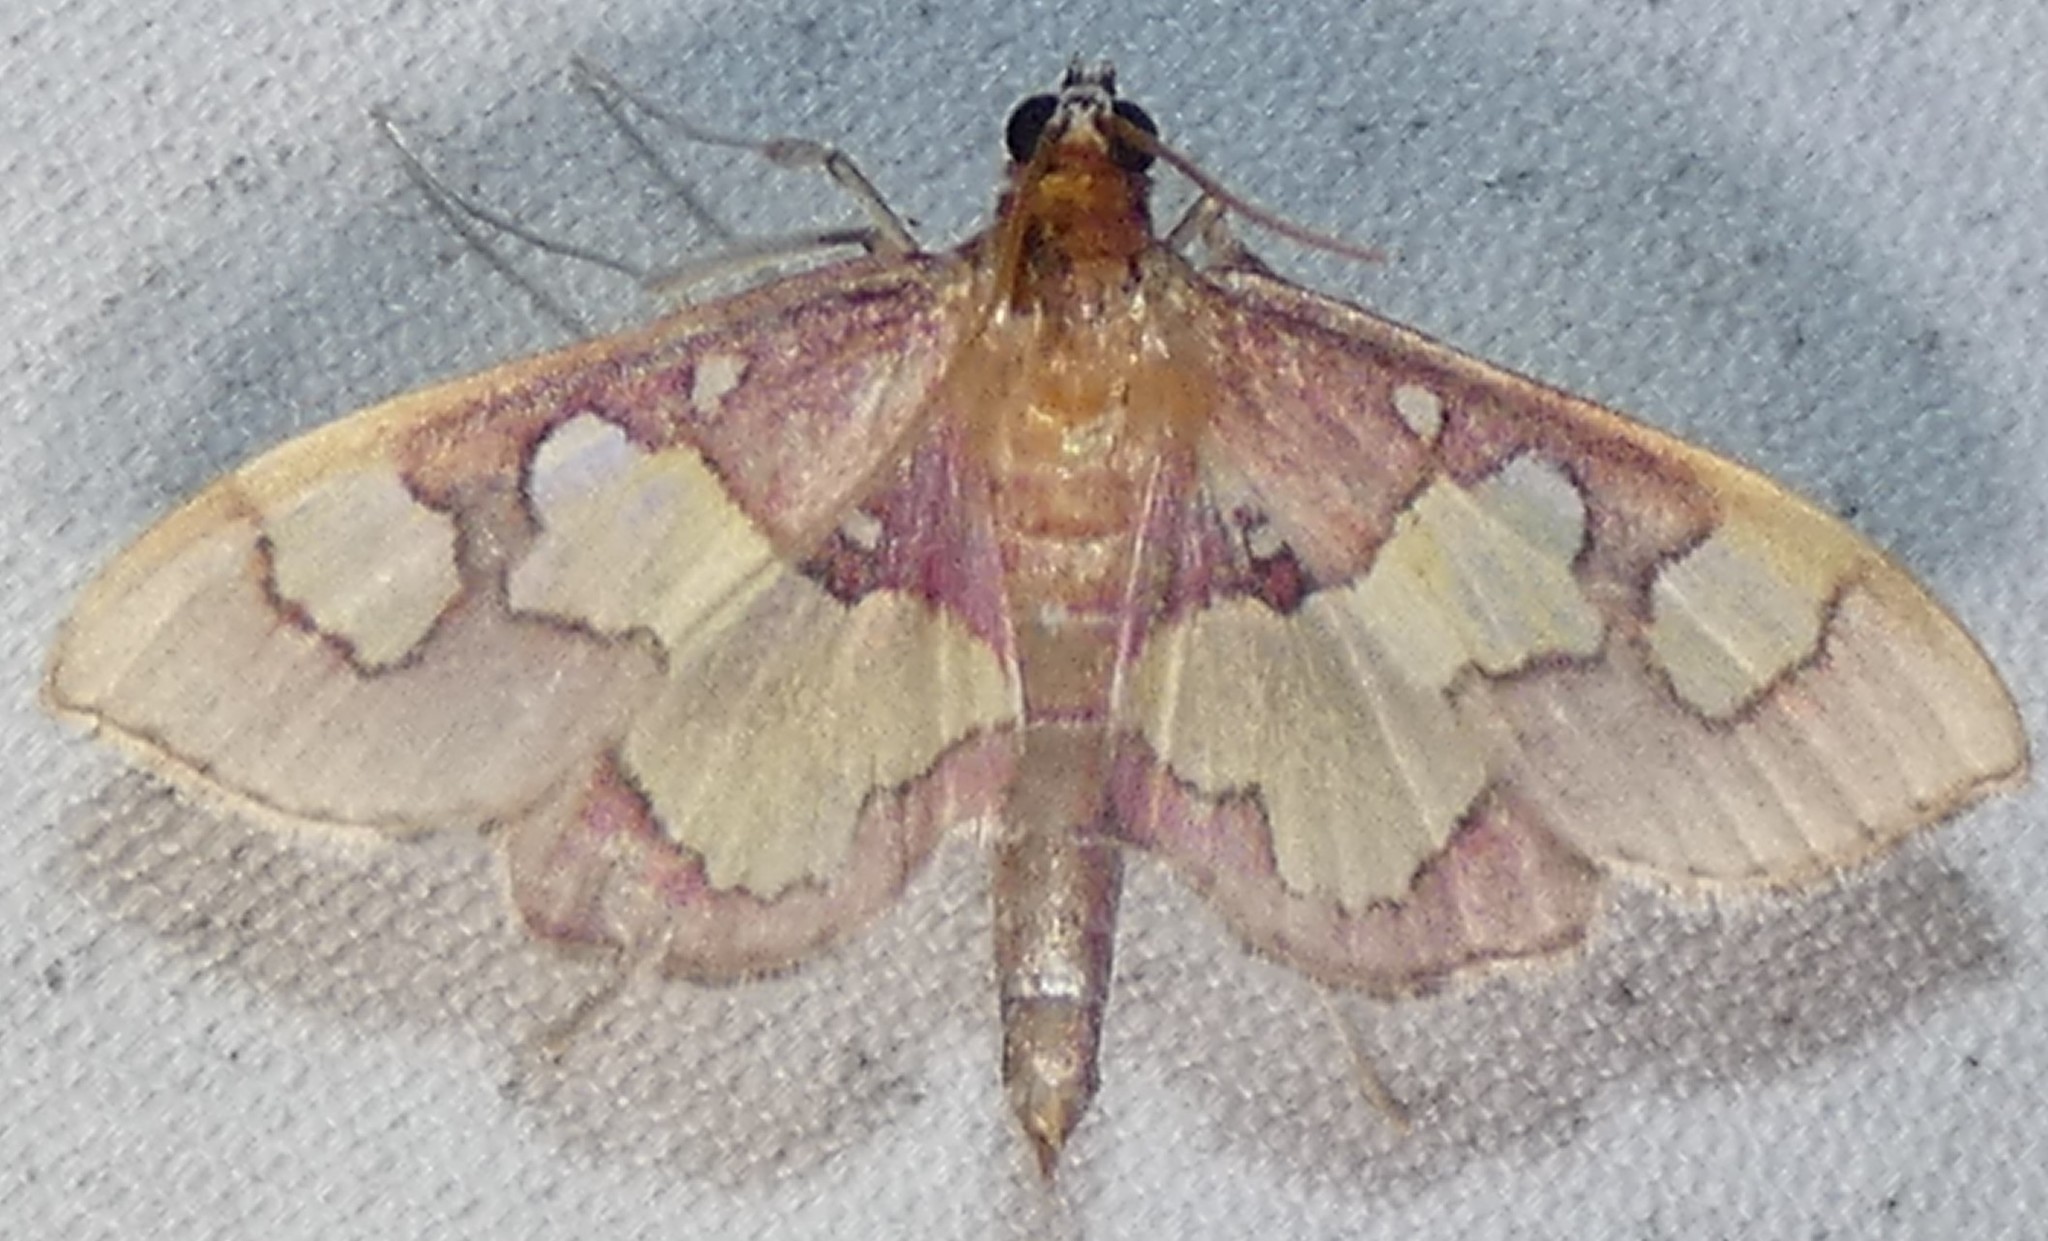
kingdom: Animalia
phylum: Arthropoda
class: Insecta
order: Lepidoptera
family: Crambidae
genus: Colomychus
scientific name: Colomychus talis
